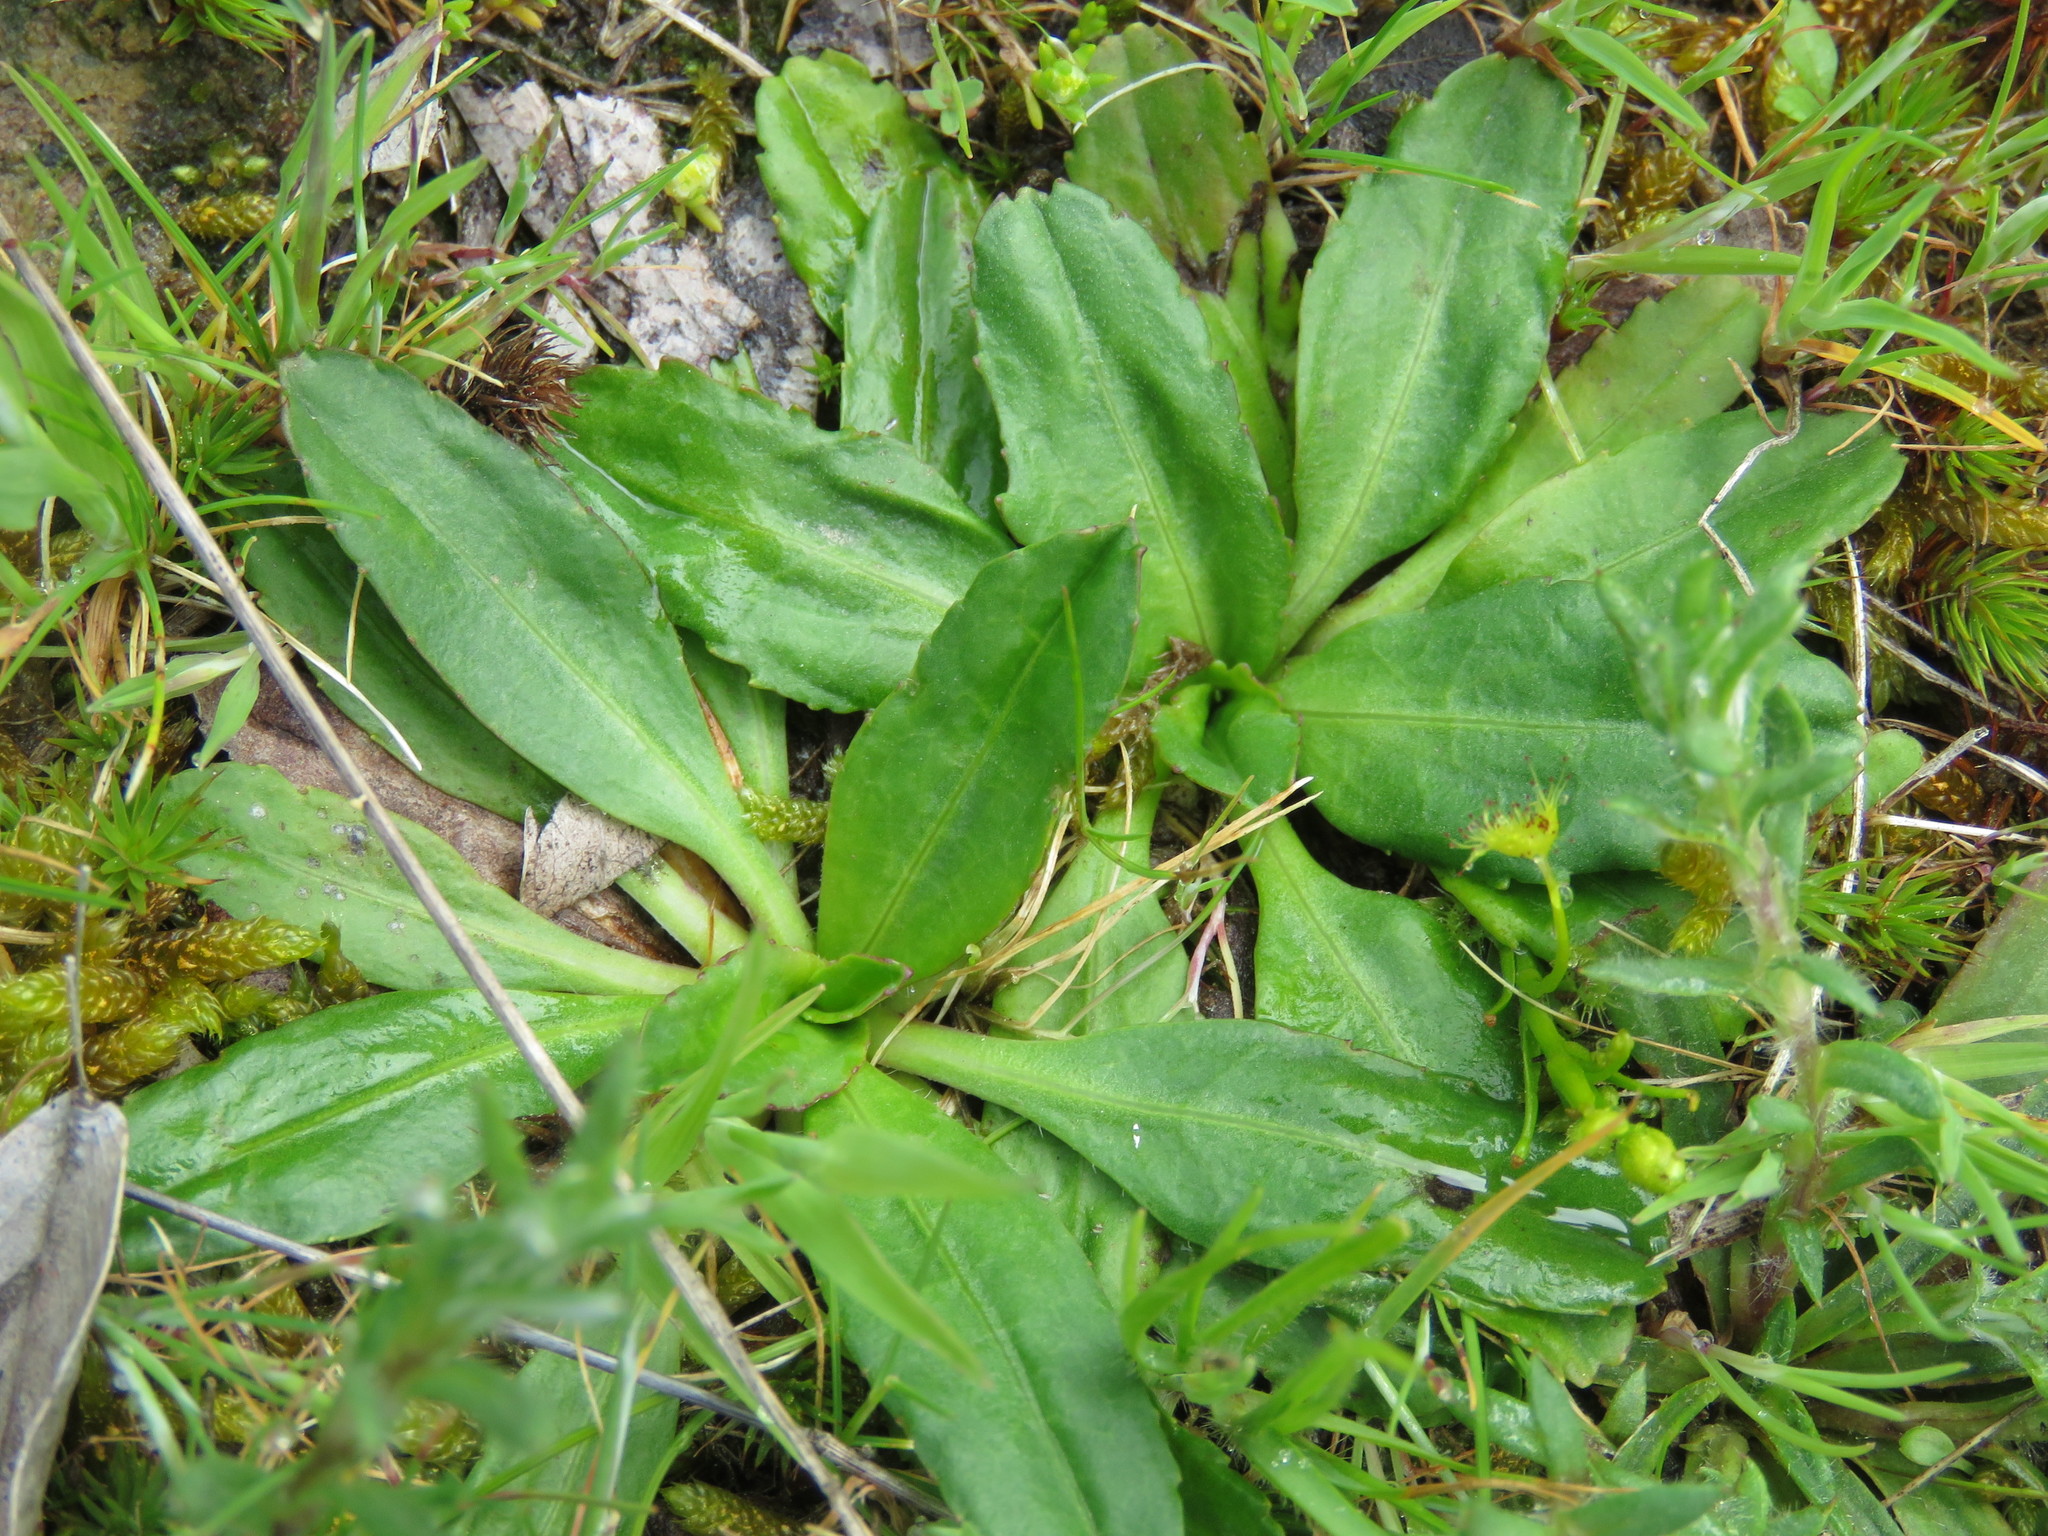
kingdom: Plantae
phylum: Tracheophyta
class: Magnoliopsida
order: Asterales
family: Asteraceae
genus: Solenogyne
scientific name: Solenogyne dominii
